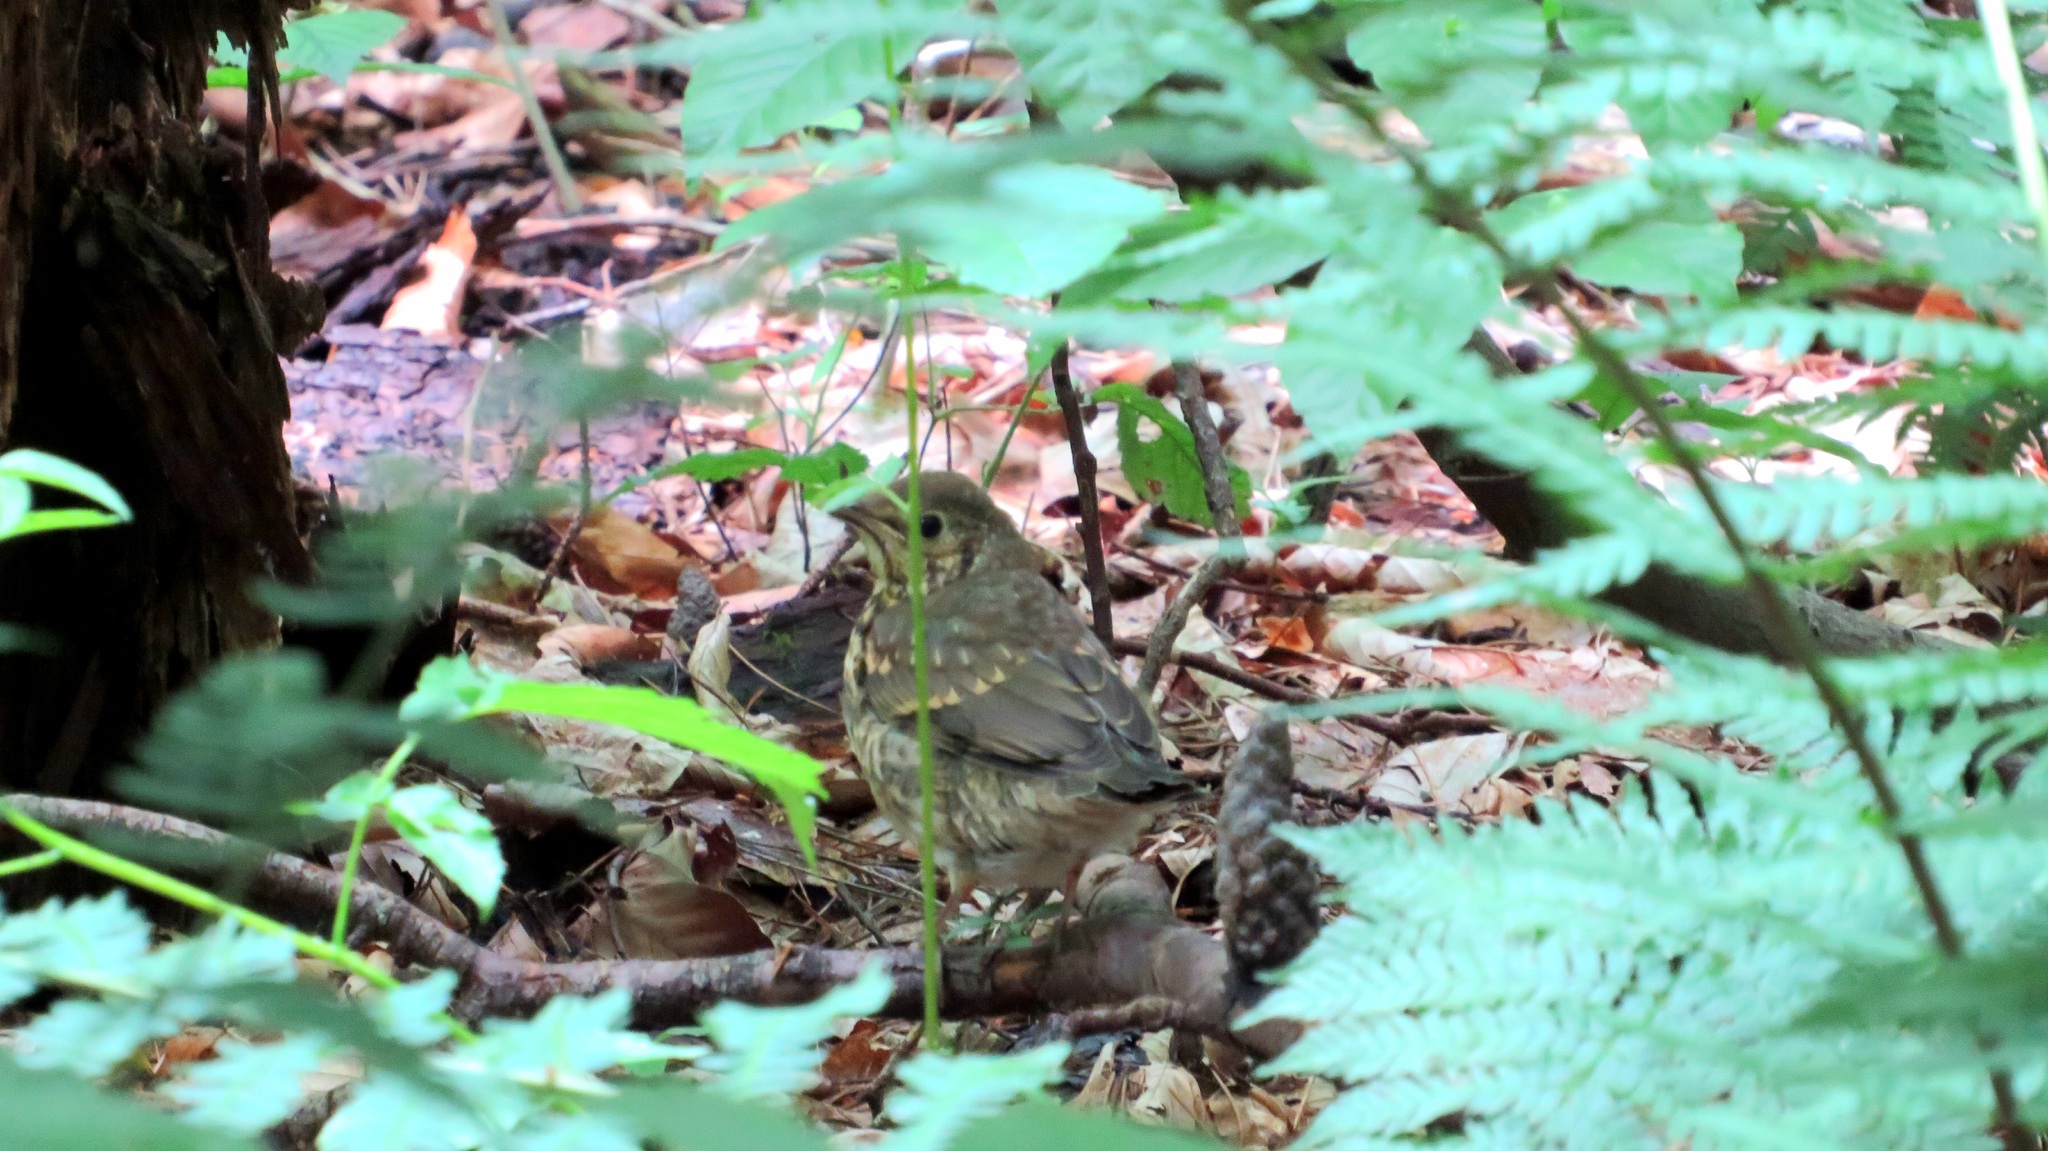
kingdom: Animalia
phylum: Chordata
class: Aves
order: Passeriformes
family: Turdidae
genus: Turdus
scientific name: Turdus philomelos
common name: Song thrush
